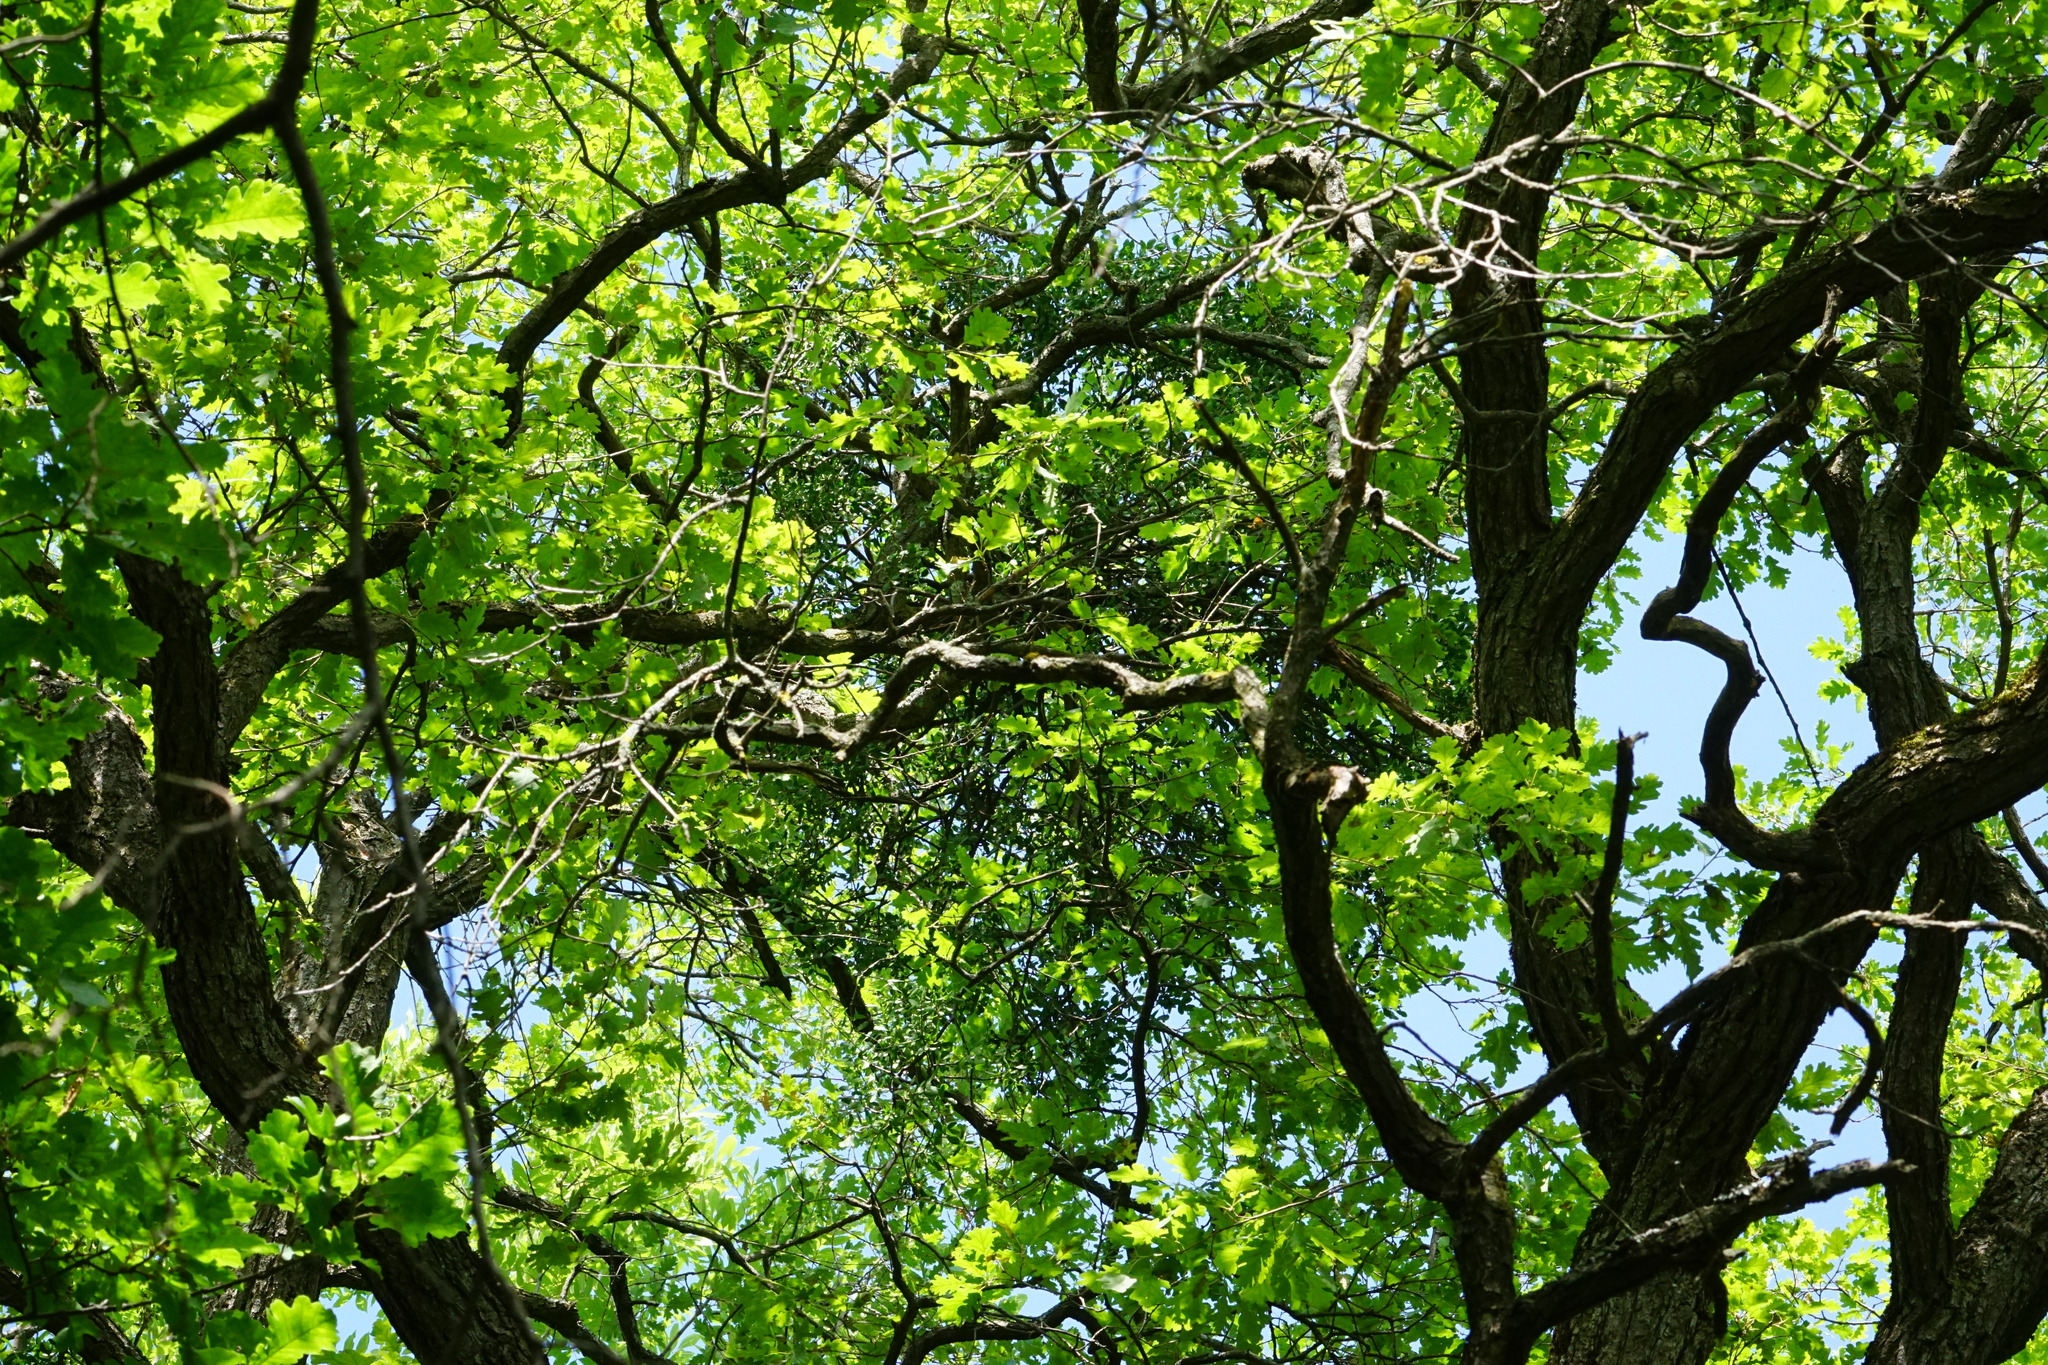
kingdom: Plantae
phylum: Tracheophyta
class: Magnoliopsida
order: Santalales
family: Loranthaceae
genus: Loranthus
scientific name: Loranthus europaeus
